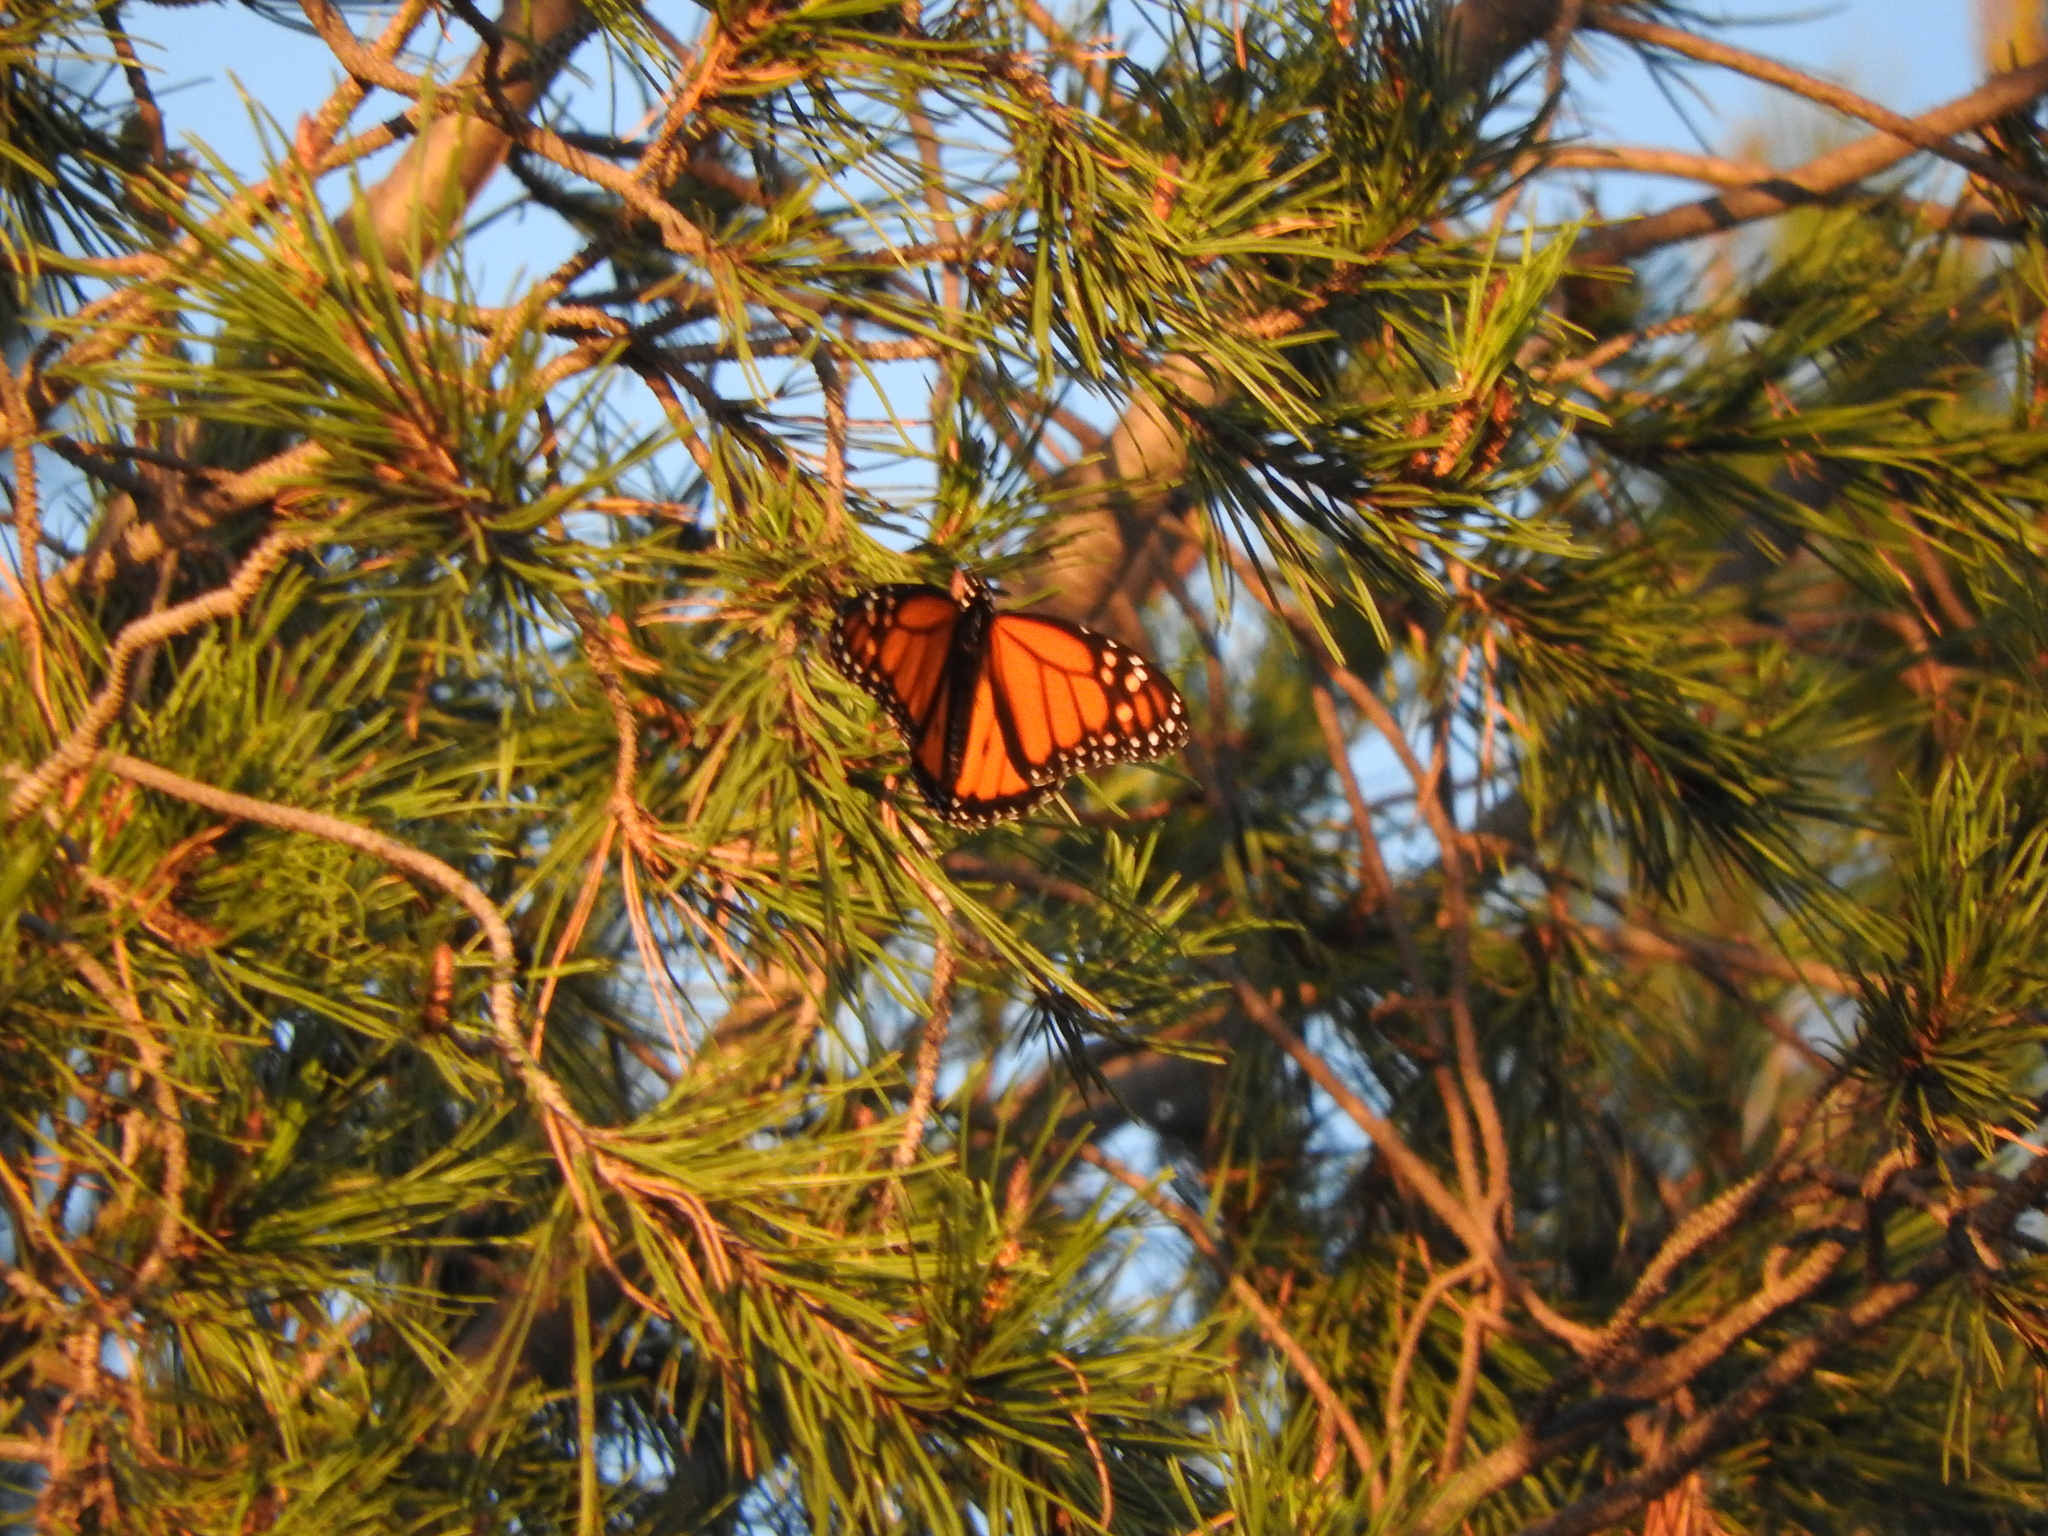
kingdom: Animalia
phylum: Arthropoda
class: Insecta
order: Lepidoptera
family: Nymphalidae
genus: Danaus
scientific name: Danaus plexippus
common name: Monarch
